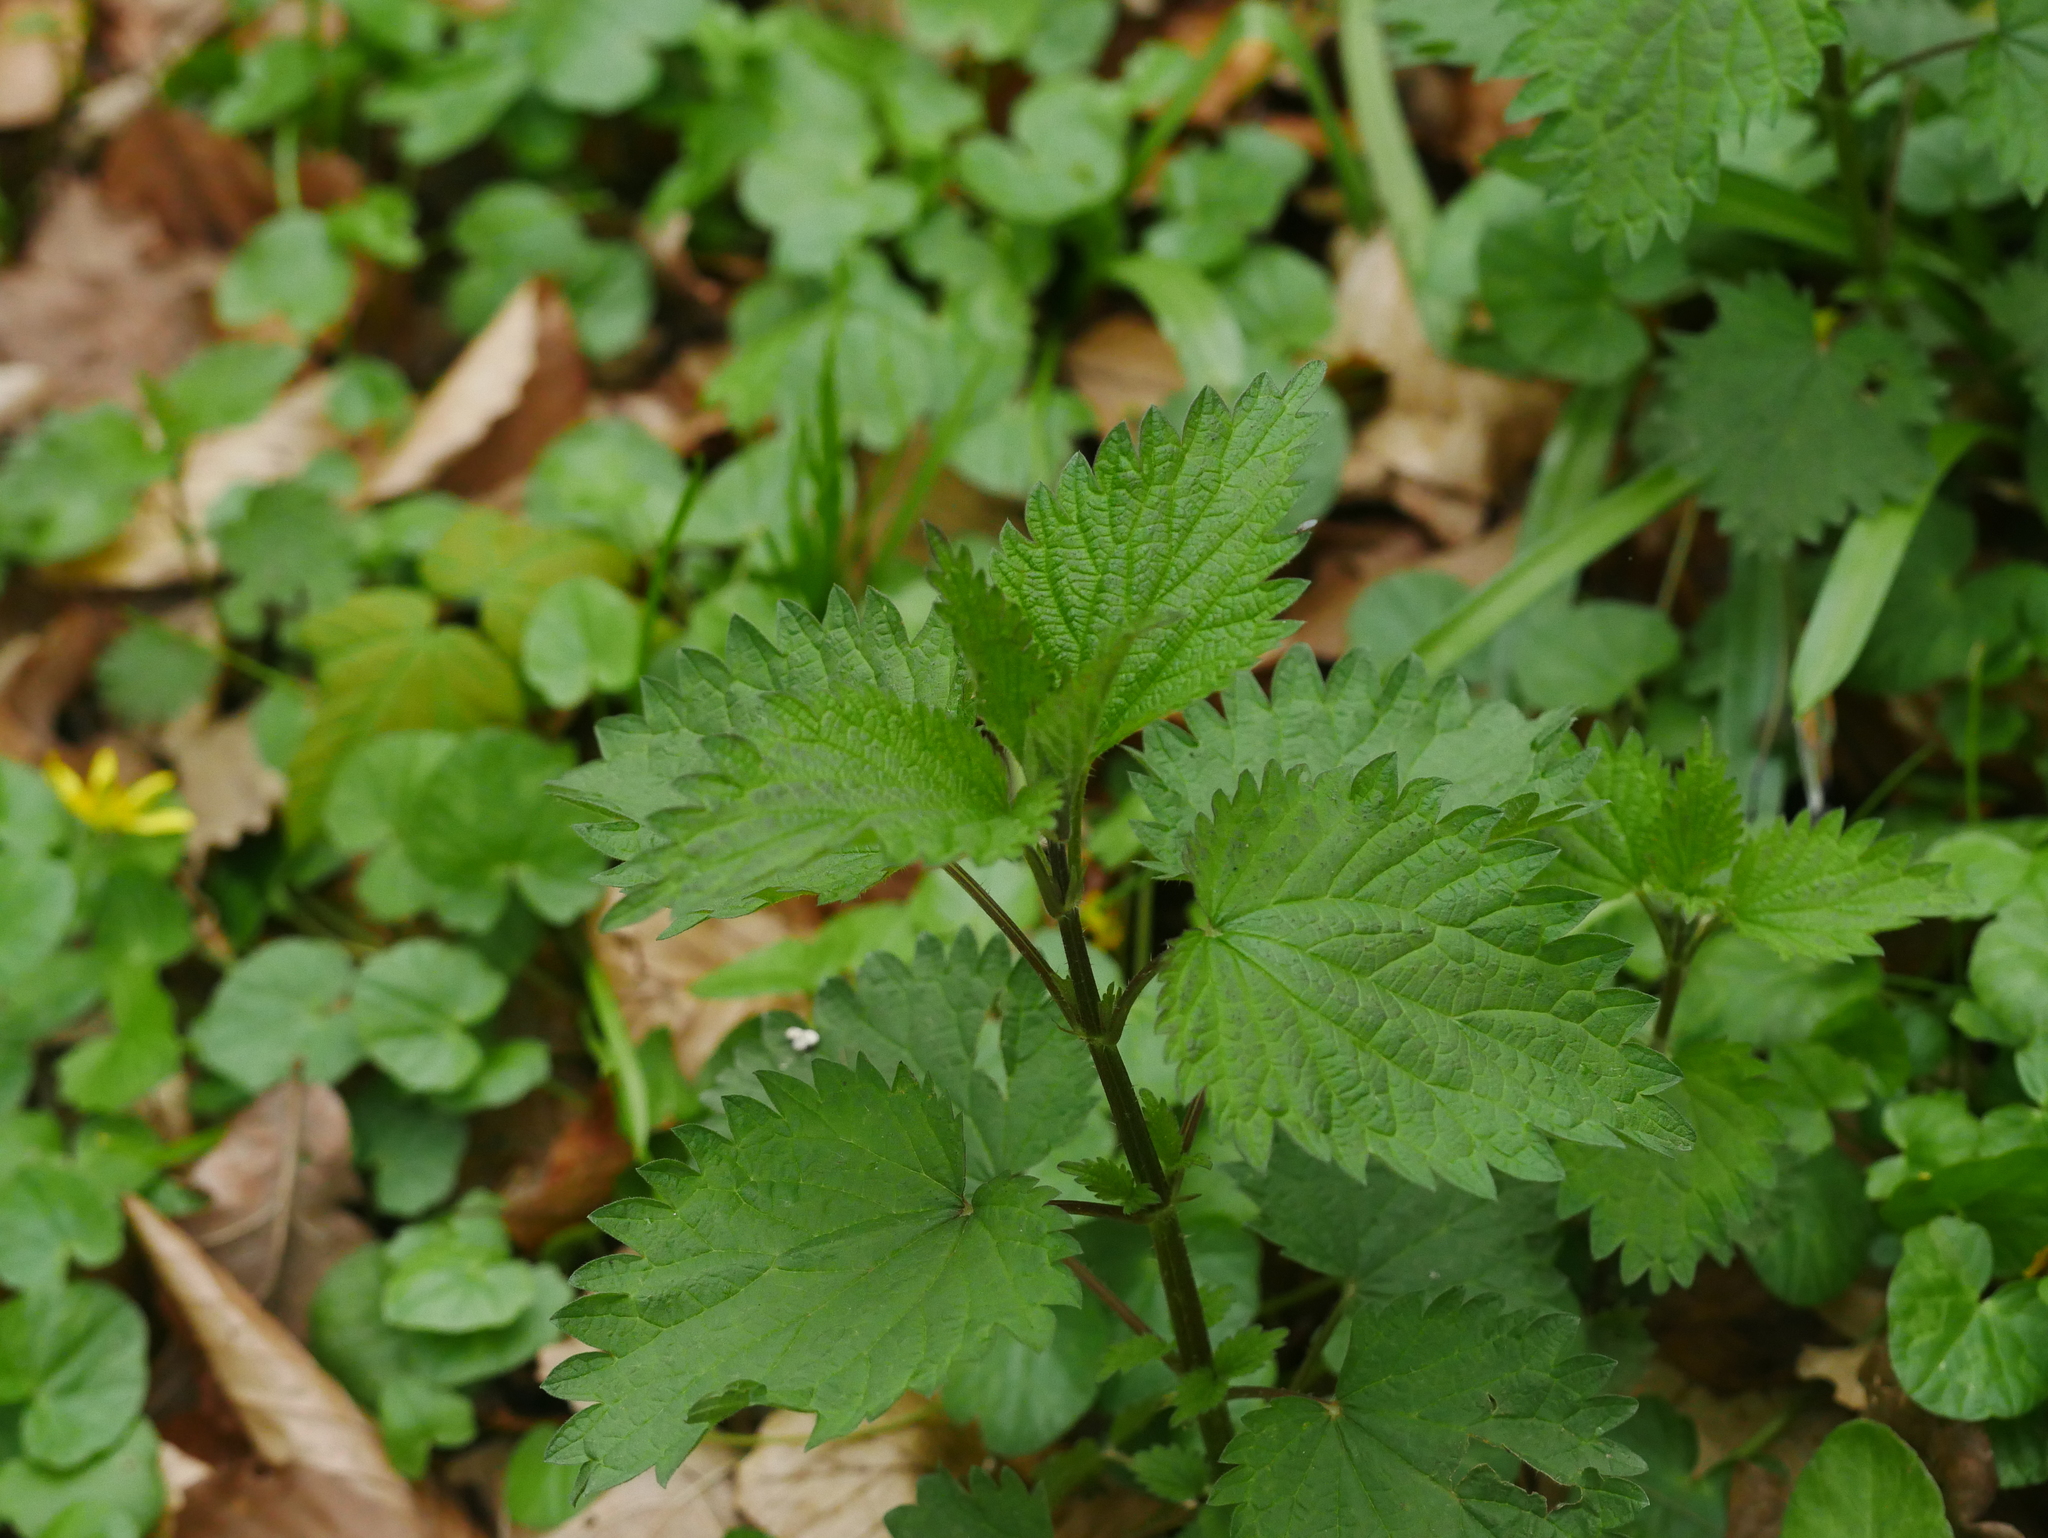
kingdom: Plantae
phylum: Tracheophyta
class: Magnoliopsida
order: Rosales
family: Urticaceae
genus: Urtica
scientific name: Urtica dioica
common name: Common nettle
